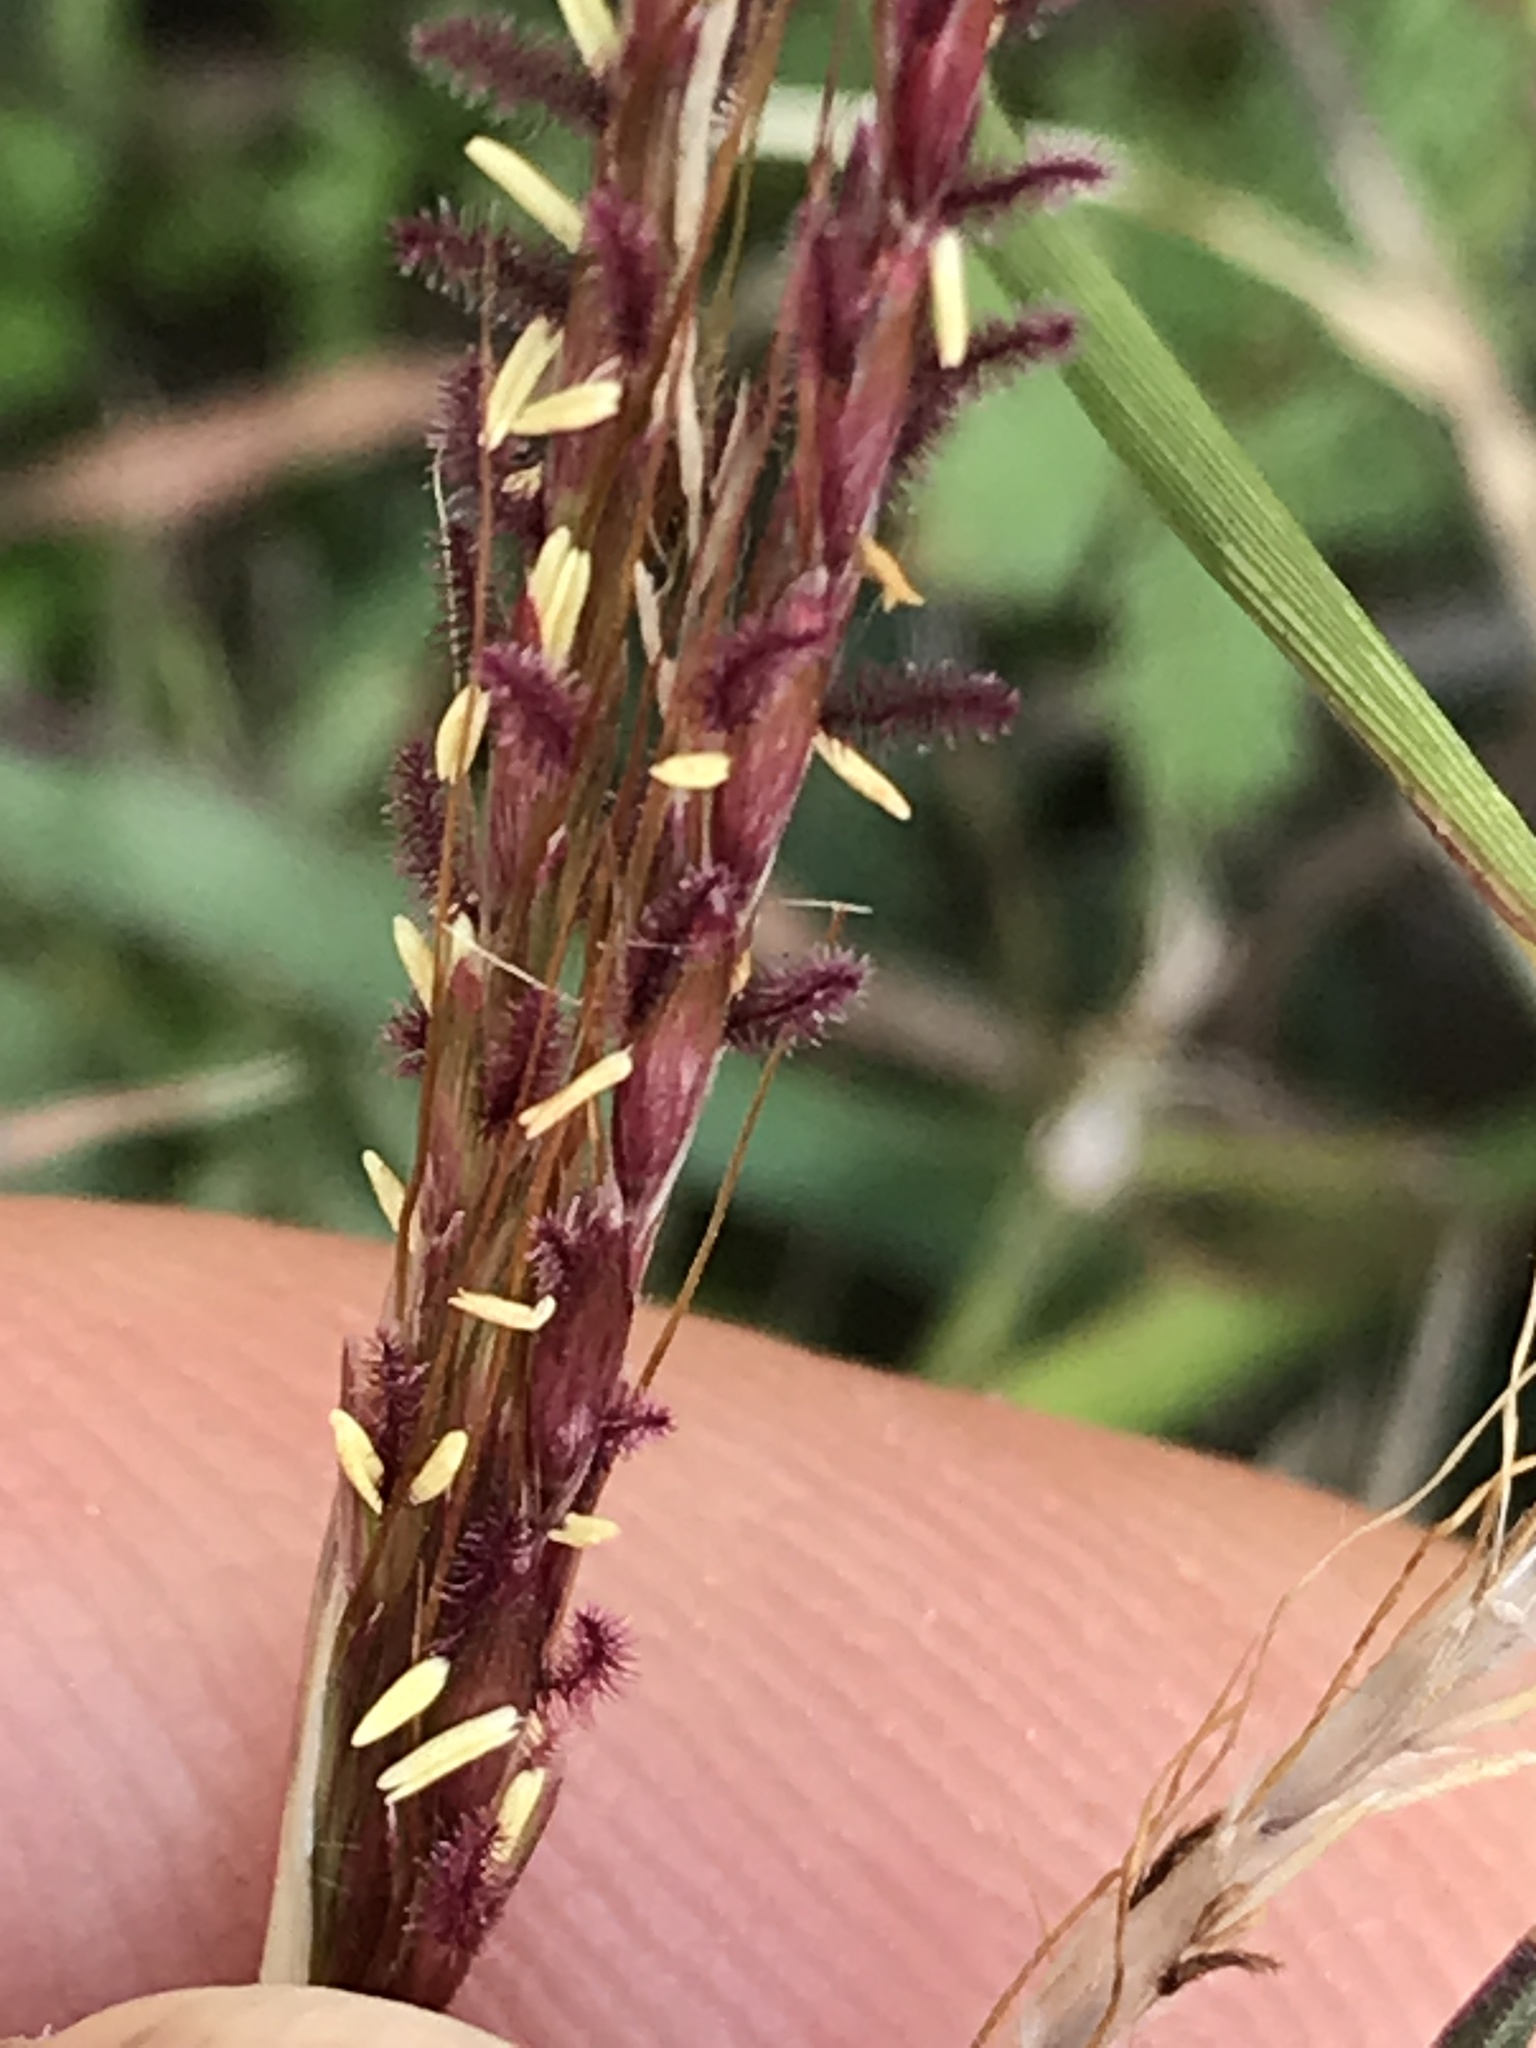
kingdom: Plantae
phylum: Tracheophyta
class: Liliopsida
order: Poales
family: Poaceae
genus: Bothriochloa
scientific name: Bothriochloa ischaemum
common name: Yellow bluestem
